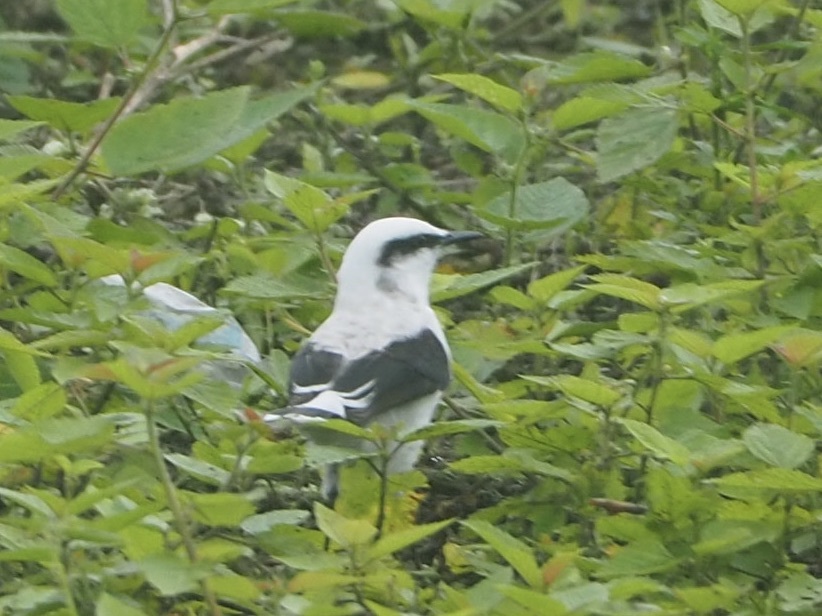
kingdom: Animalia
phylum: Chordata
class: Aves
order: Passeriformes
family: Tyrannidae
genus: Fluvicola
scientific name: Fluvicola nengeta
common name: Masked water tyrant
